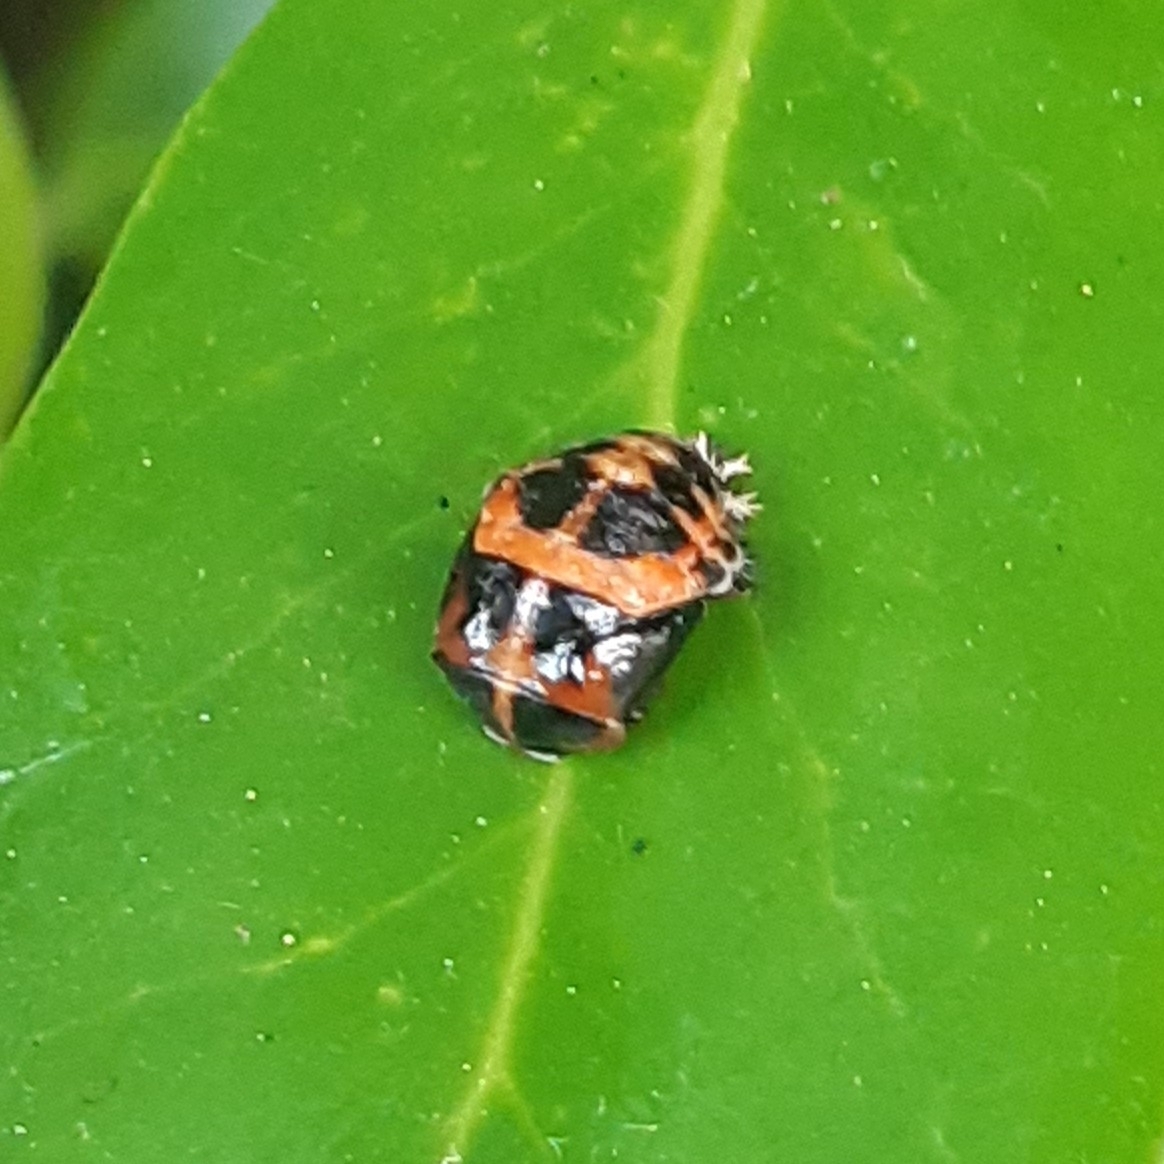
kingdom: Animalia
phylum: Arthropoda
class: Insecta
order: Coleoptera
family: Coccinellidae
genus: Harmonia
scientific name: Harmonia axyridis
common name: Harlequin ladybird
